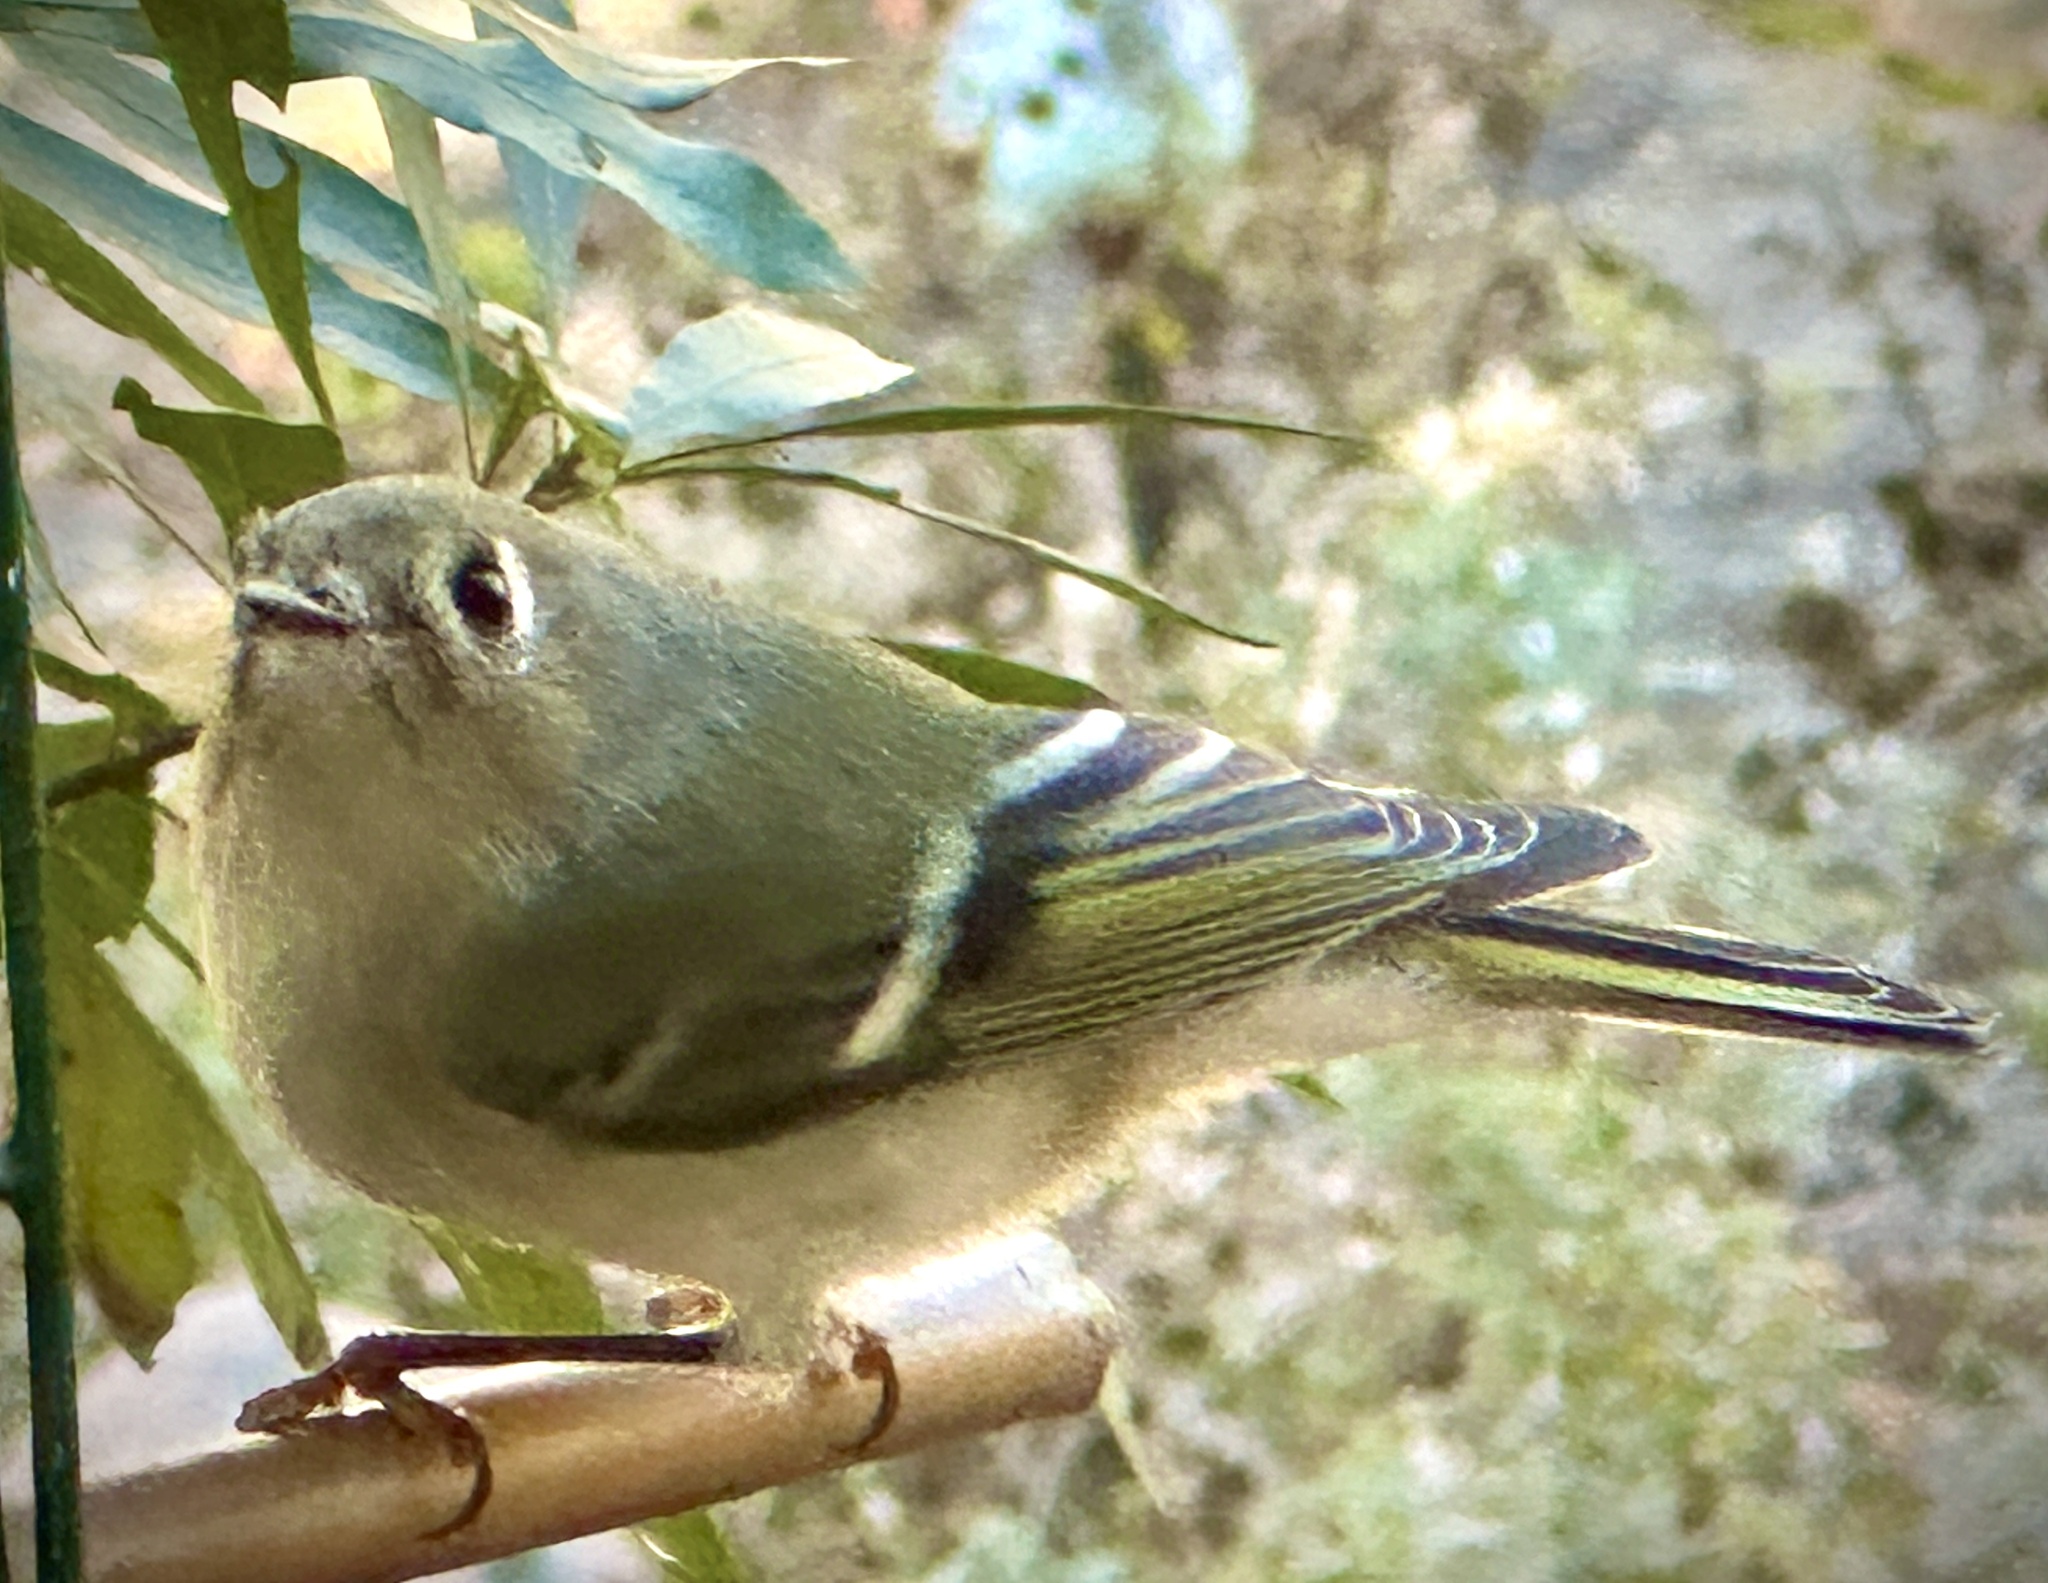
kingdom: Animalia
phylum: Chordata
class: Aves
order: Passeriformes
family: Regulidae
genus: Regulus
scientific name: Regulus calendula
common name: Ruby-crowned kinglet
